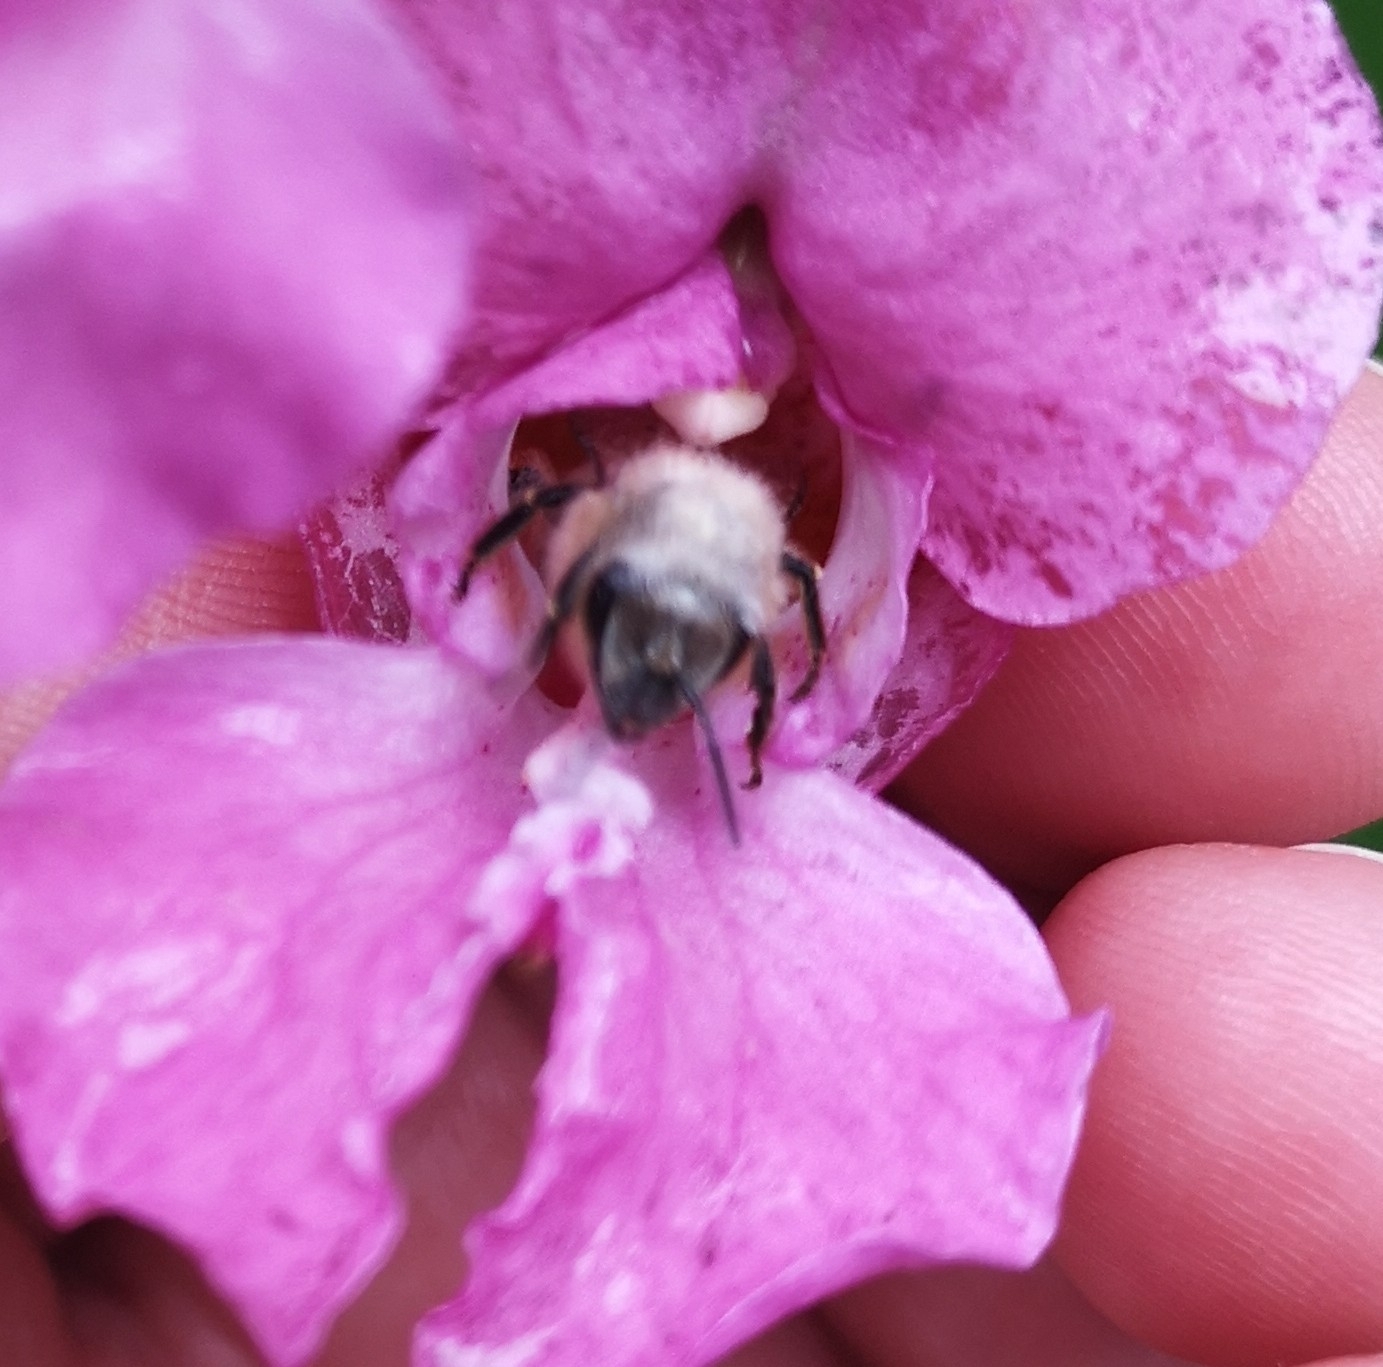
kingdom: Animalia
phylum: Arthropoda
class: Insecta
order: Hymenoptera
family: Apidae
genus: Apis
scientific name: Apis mellifera
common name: Honey bee
